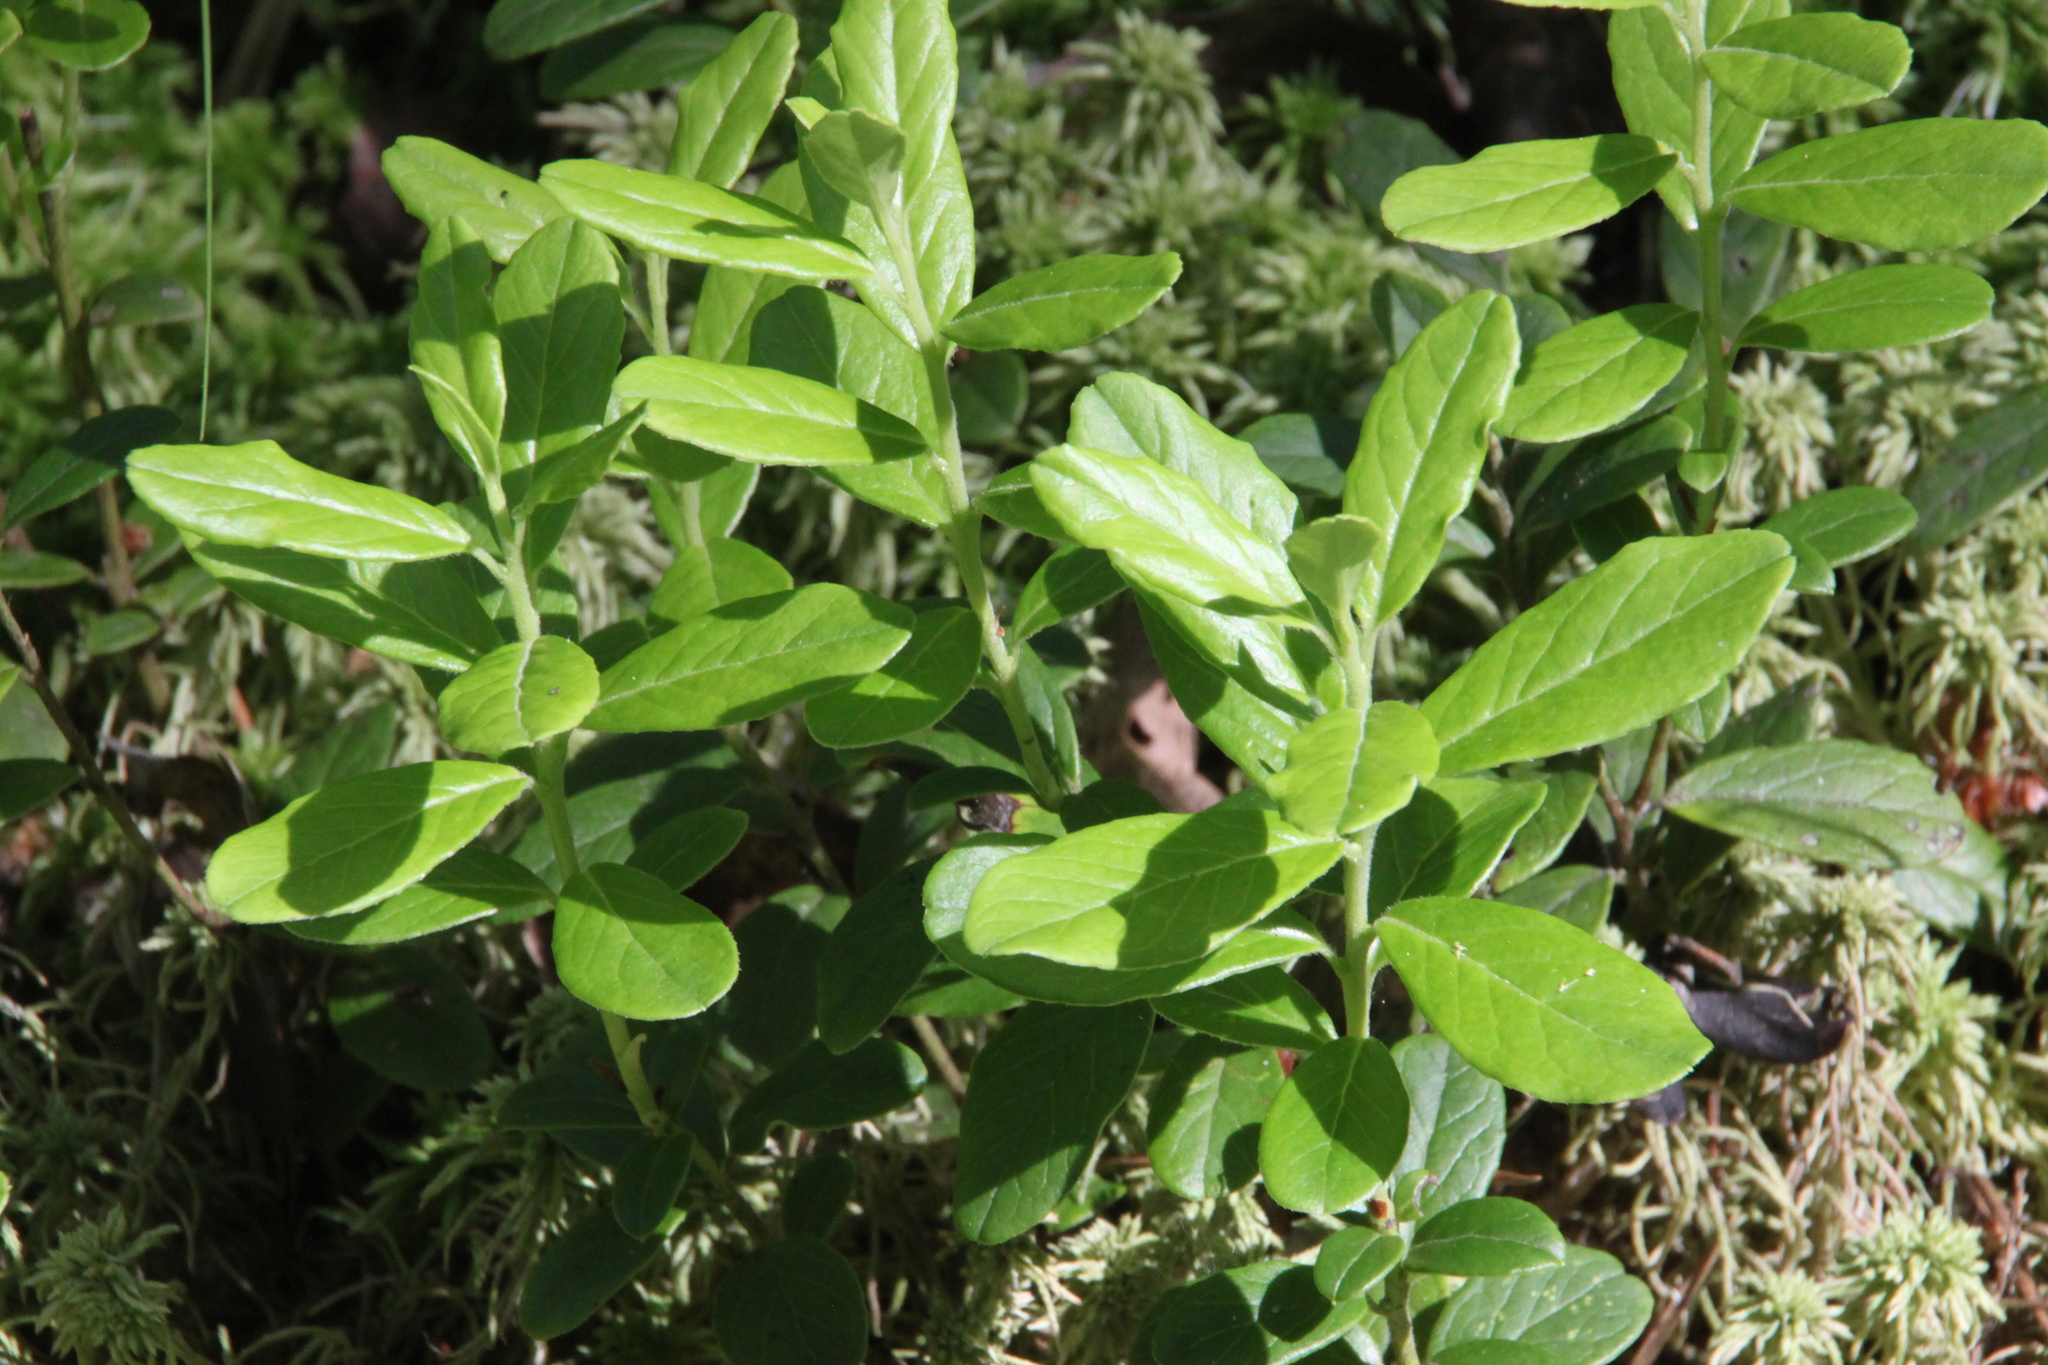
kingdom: Plantae
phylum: Tracheophyta
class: Magnoliopsida
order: Ericales
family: Ericaceae
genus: Vaccinium
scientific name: Vaccinium vitis-idaea
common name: Cowberry
